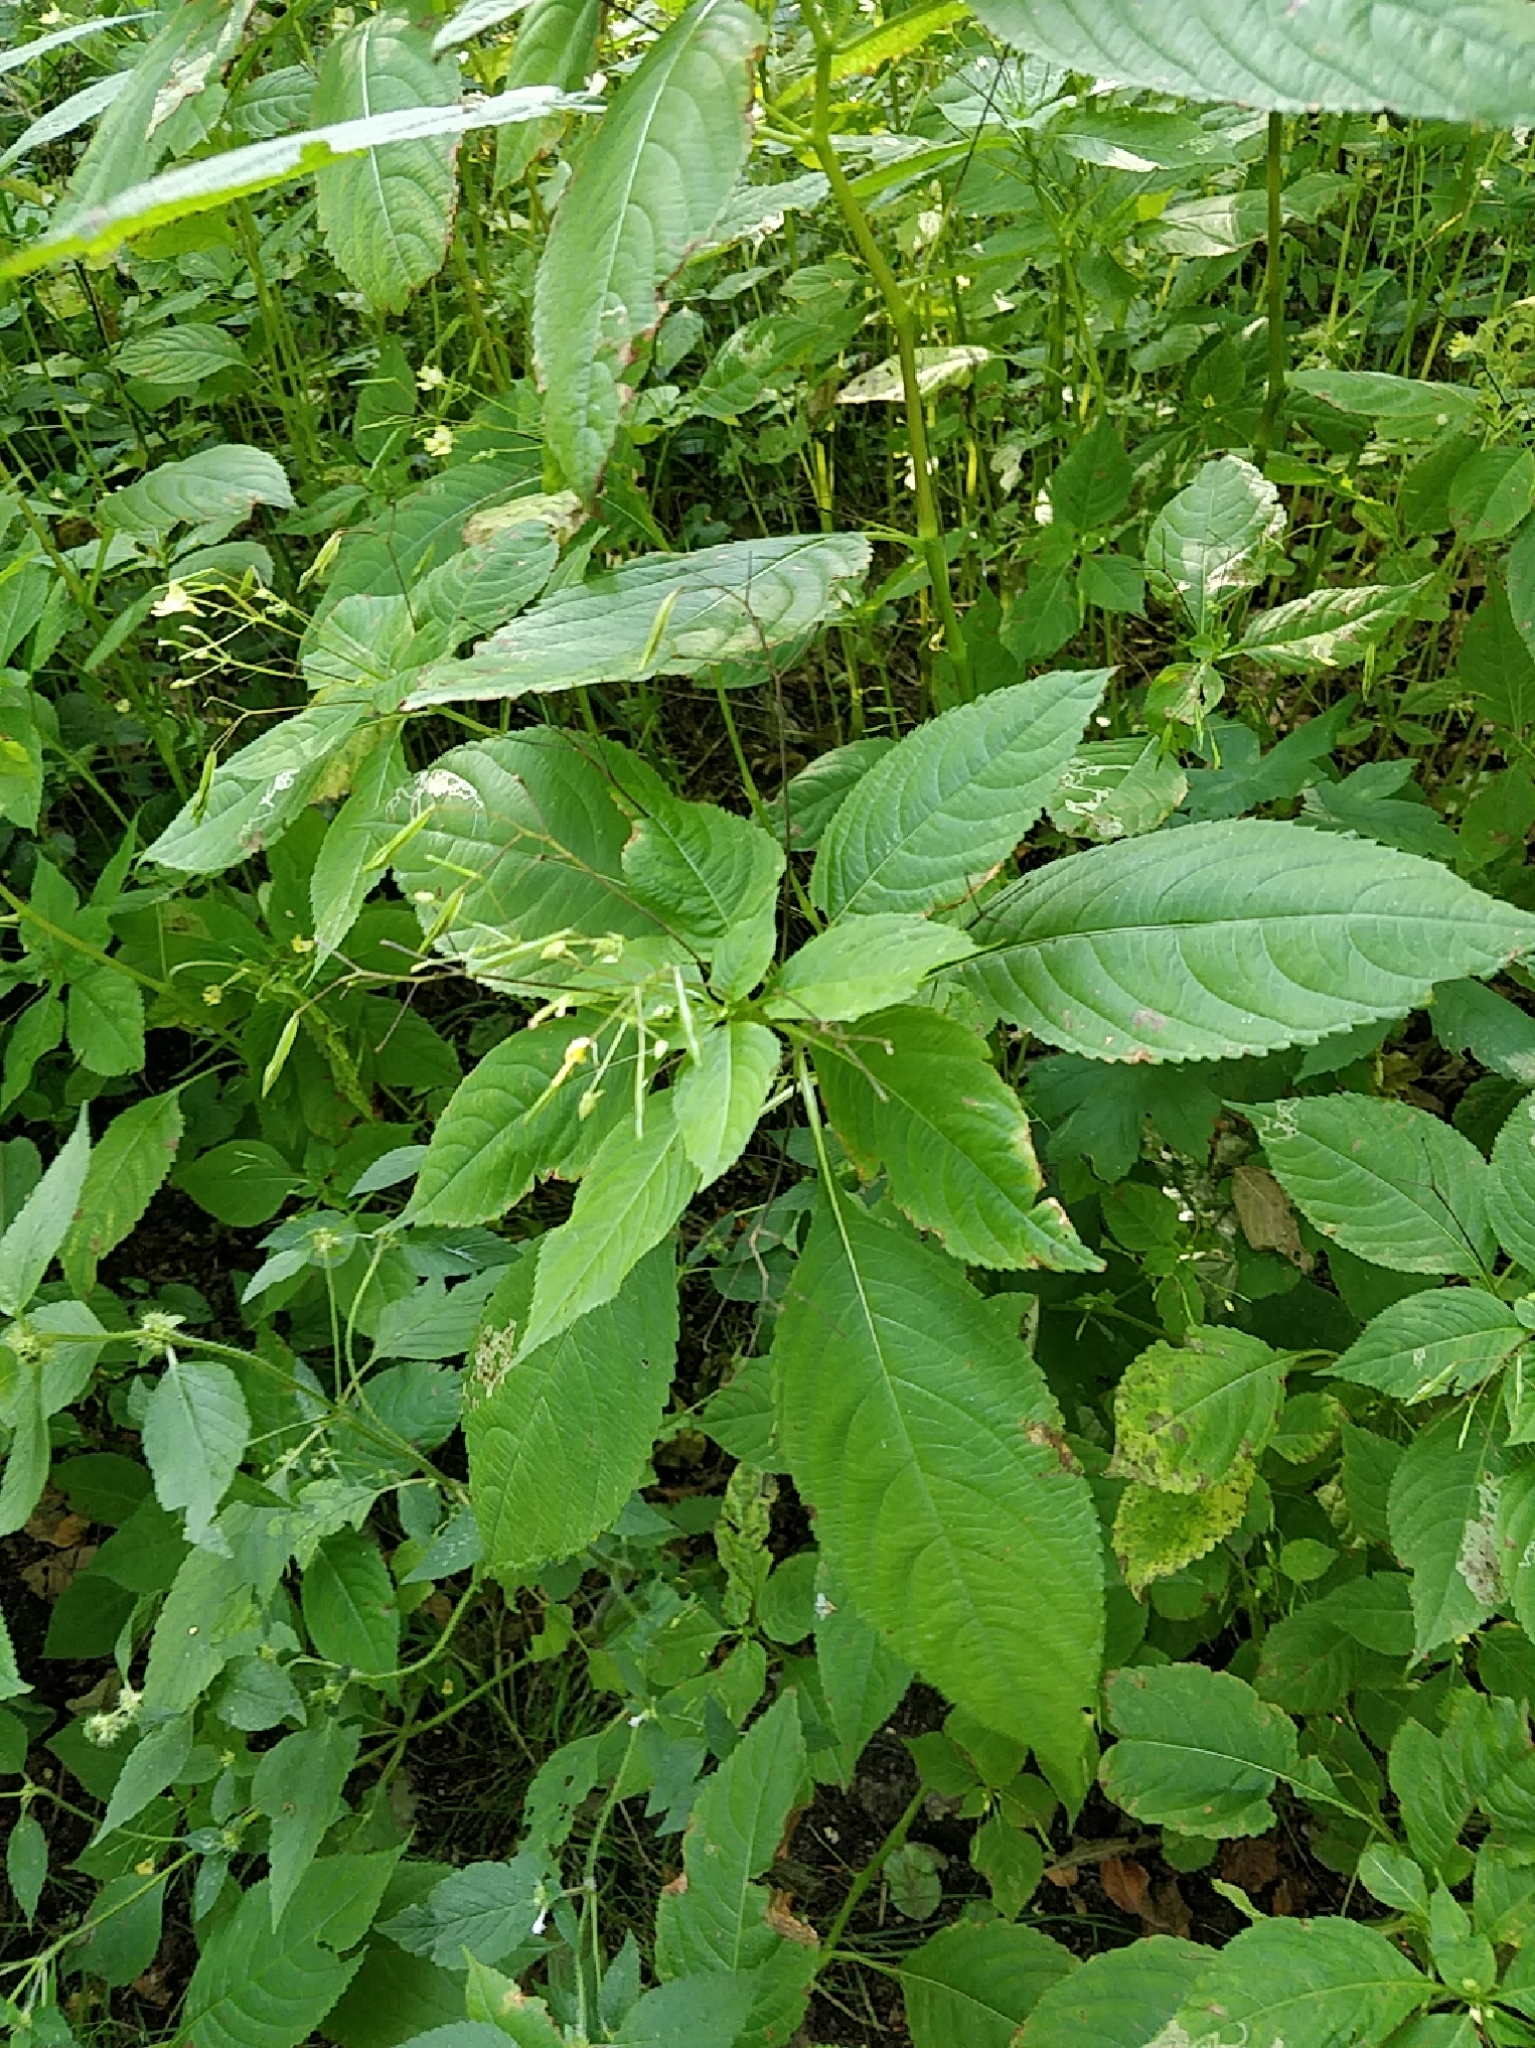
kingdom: Plantae
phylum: Tracheophyta
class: Magnoliopsida
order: Ericales
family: Balsaminaceae
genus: Impatiens
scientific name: Impatiens parviflora
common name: Small balsam
